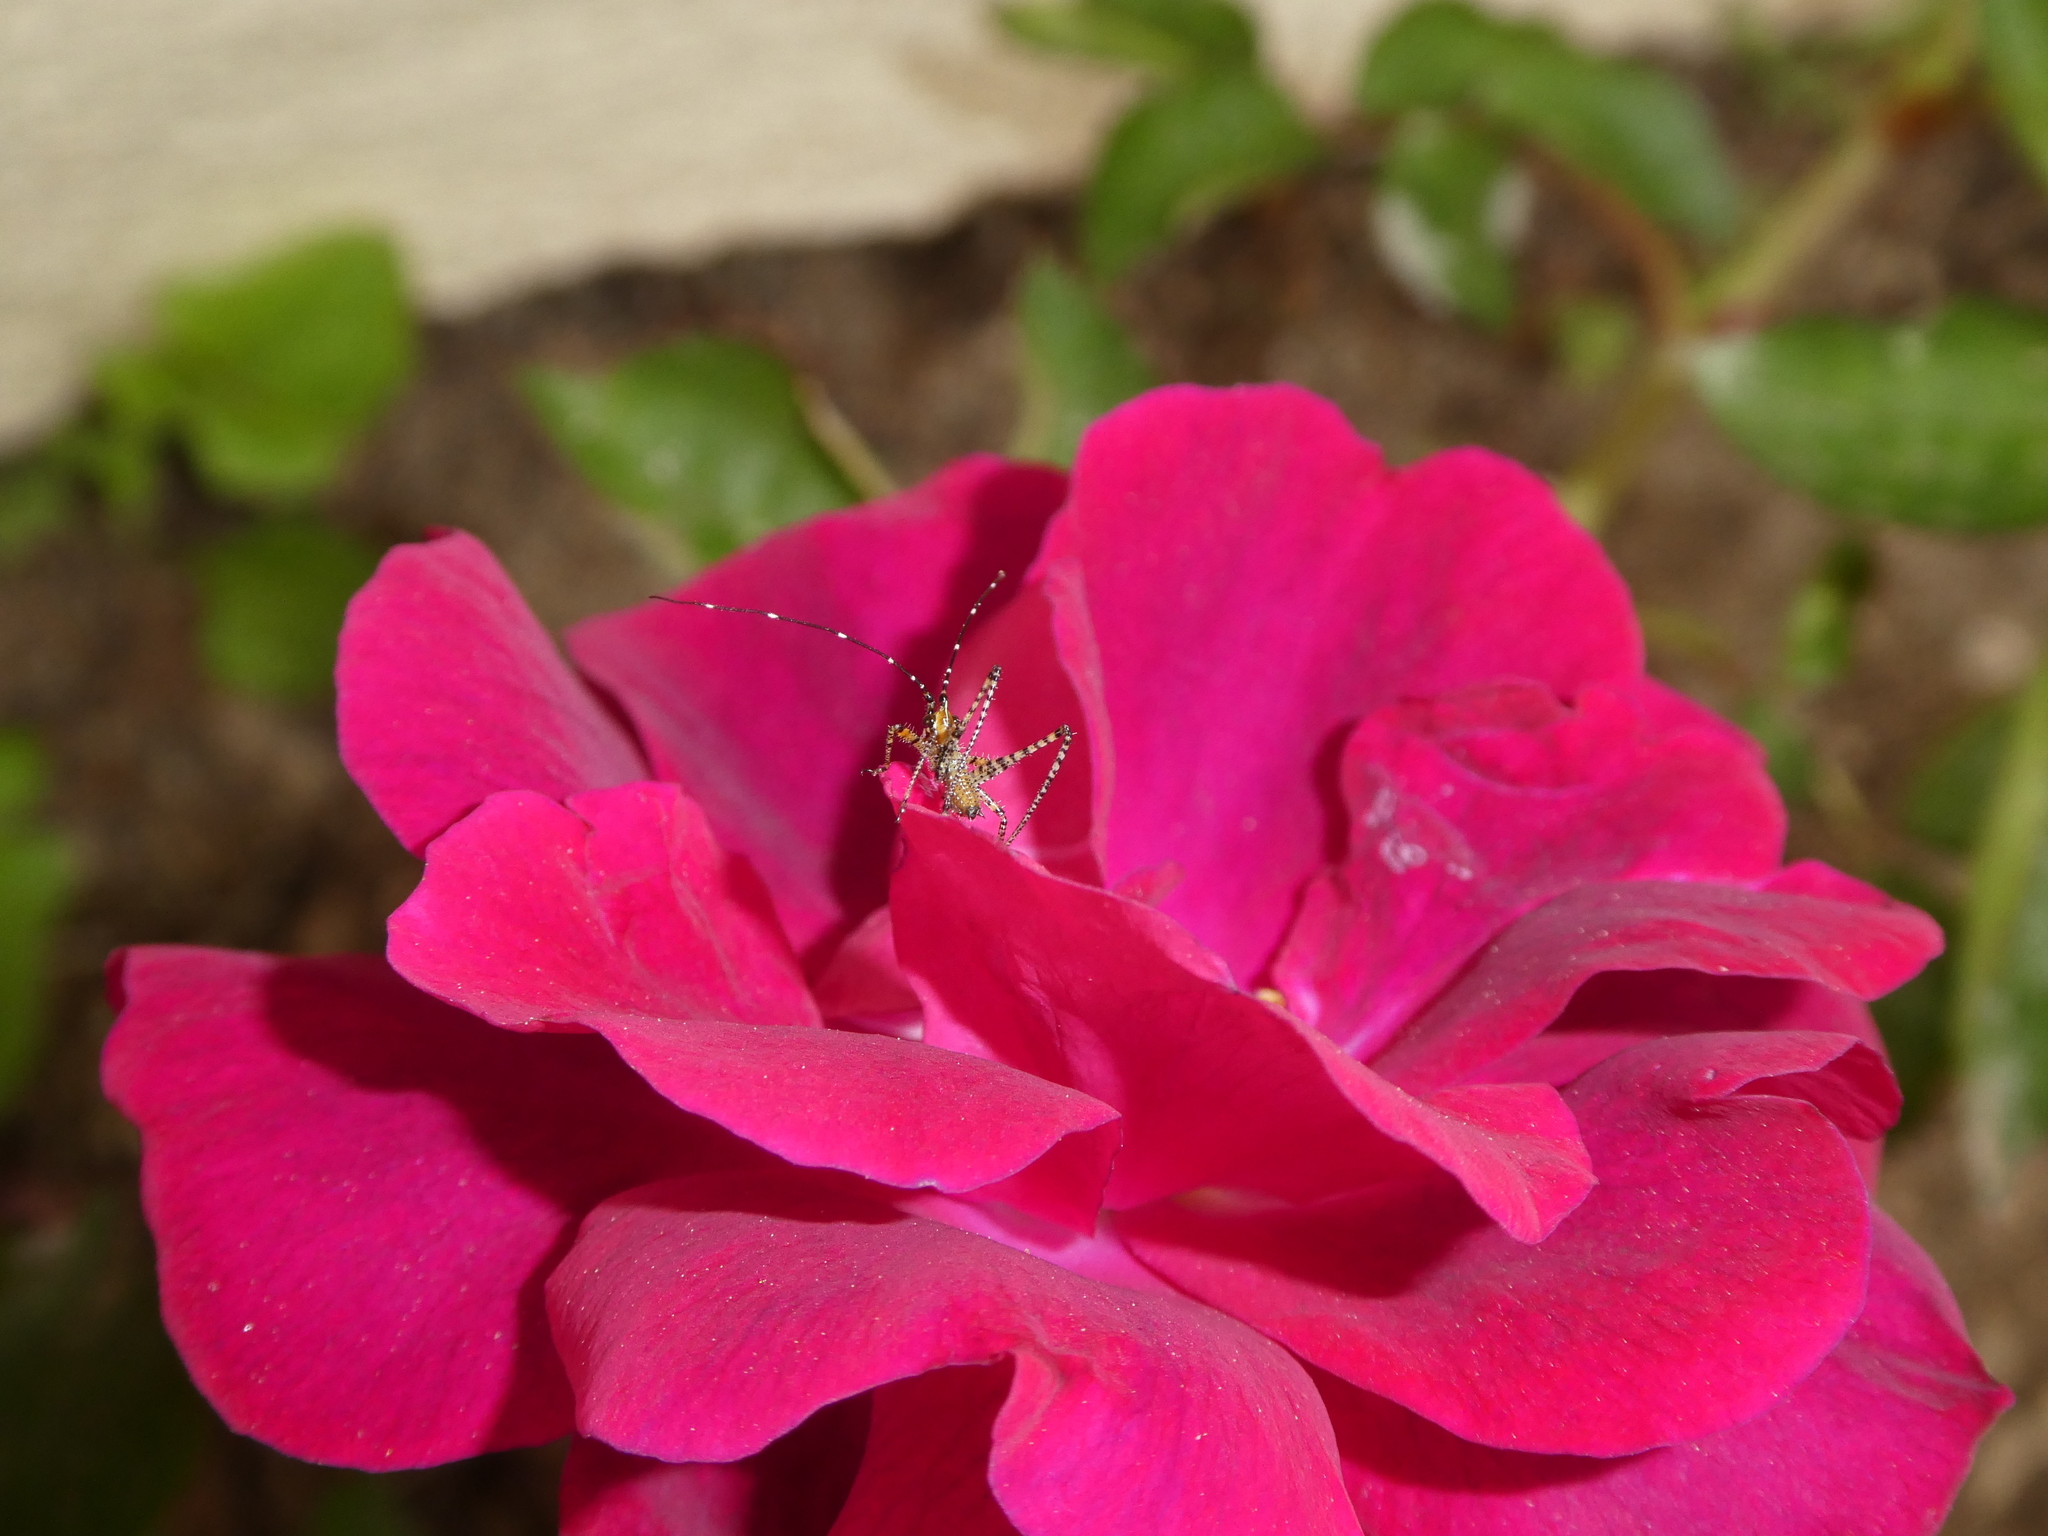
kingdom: Animalia
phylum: Arthropoda
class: Insecta
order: Orthoptera
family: Tettigoniidae
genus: Scudderia
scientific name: Scudderia mexicana
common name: Mexican bush katydid
